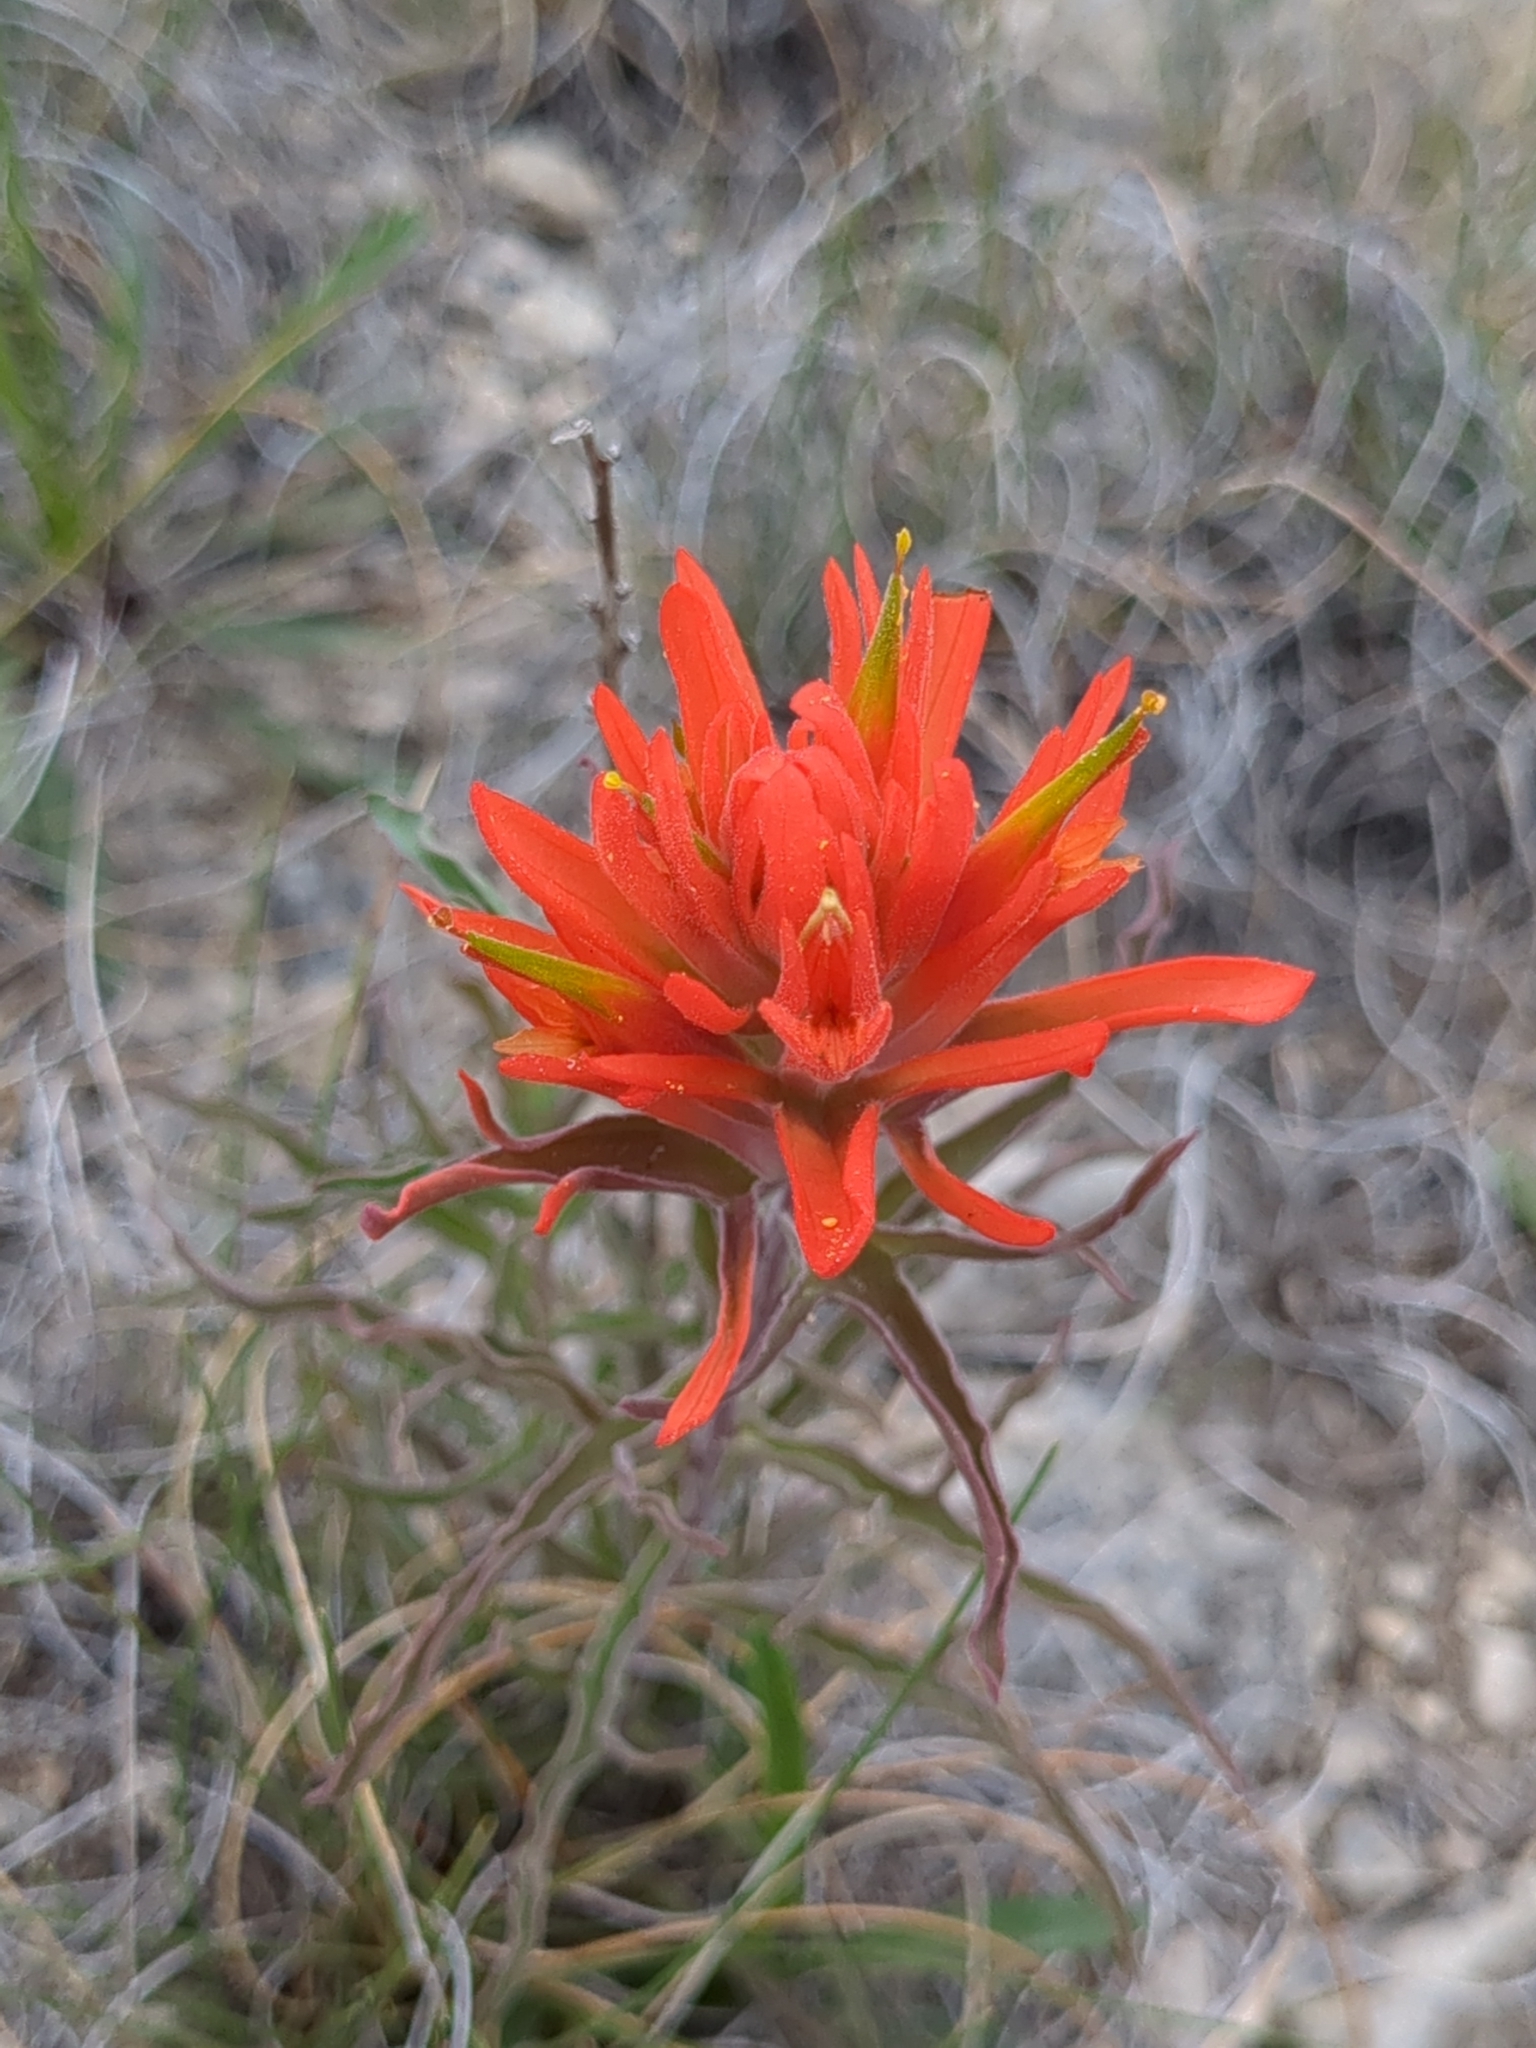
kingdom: Plantae
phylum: Tracheophyta
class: Magnoliopsida
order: Lamiales
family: Orobanchaceae
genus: Castilleja
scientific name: Castilleja lindheimeri
